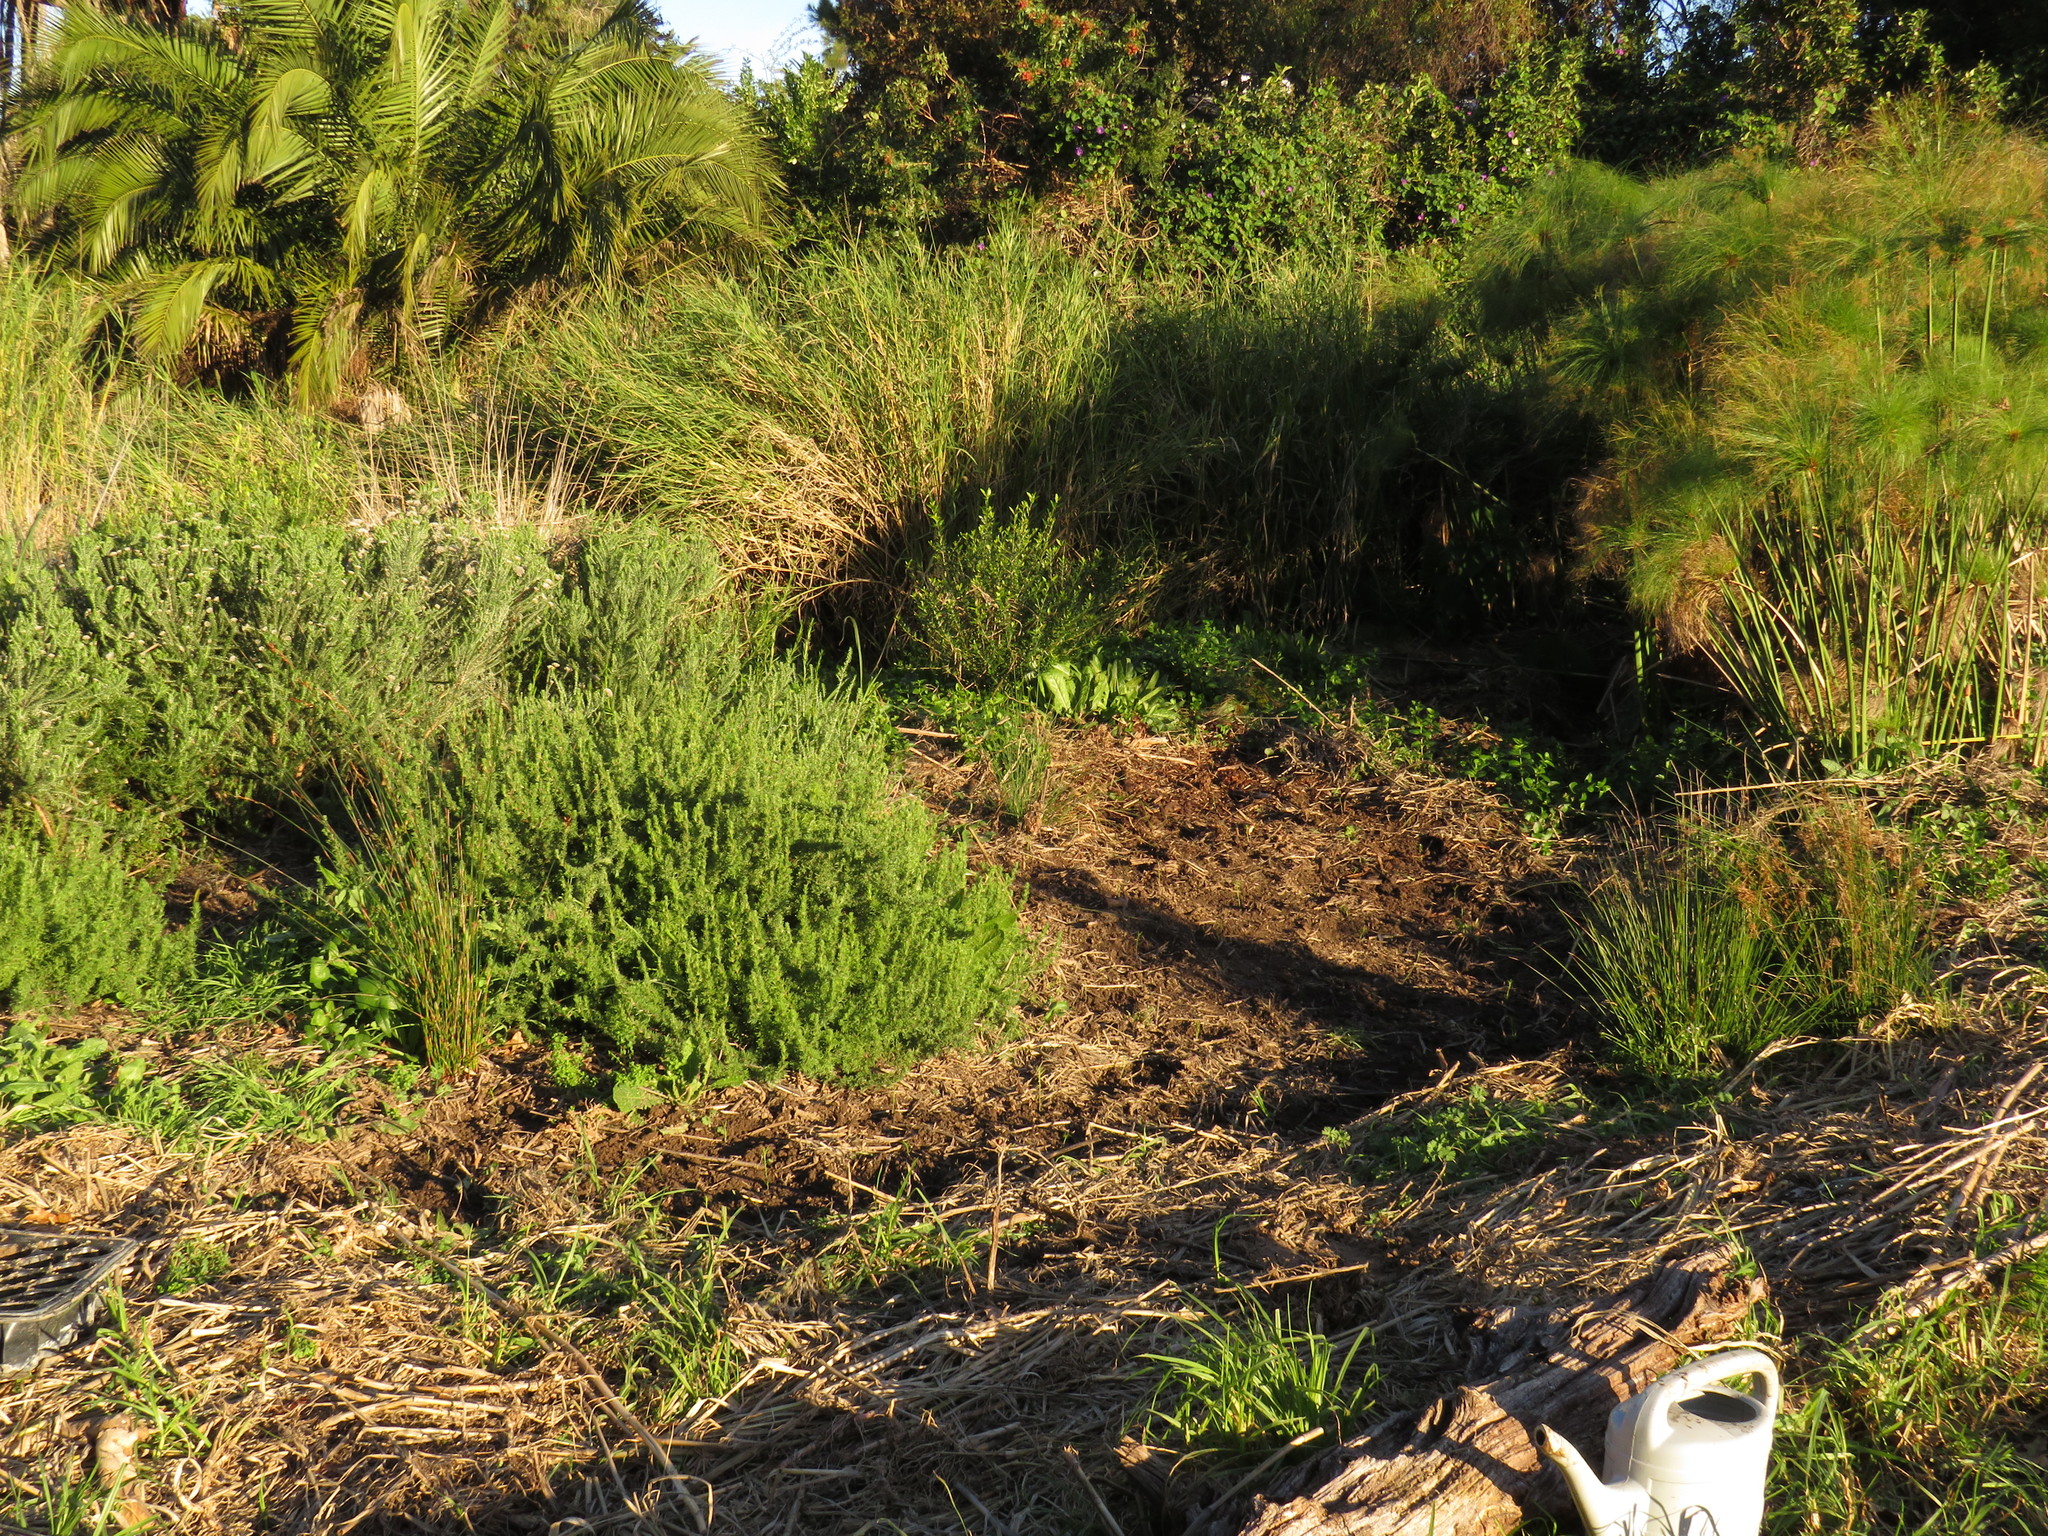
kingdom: Plantae
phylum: Tracheophyta
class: Magnoliopsida
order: Fabales
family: Fabaceae
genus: Psoralea
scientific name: Psoralea fascicularis
